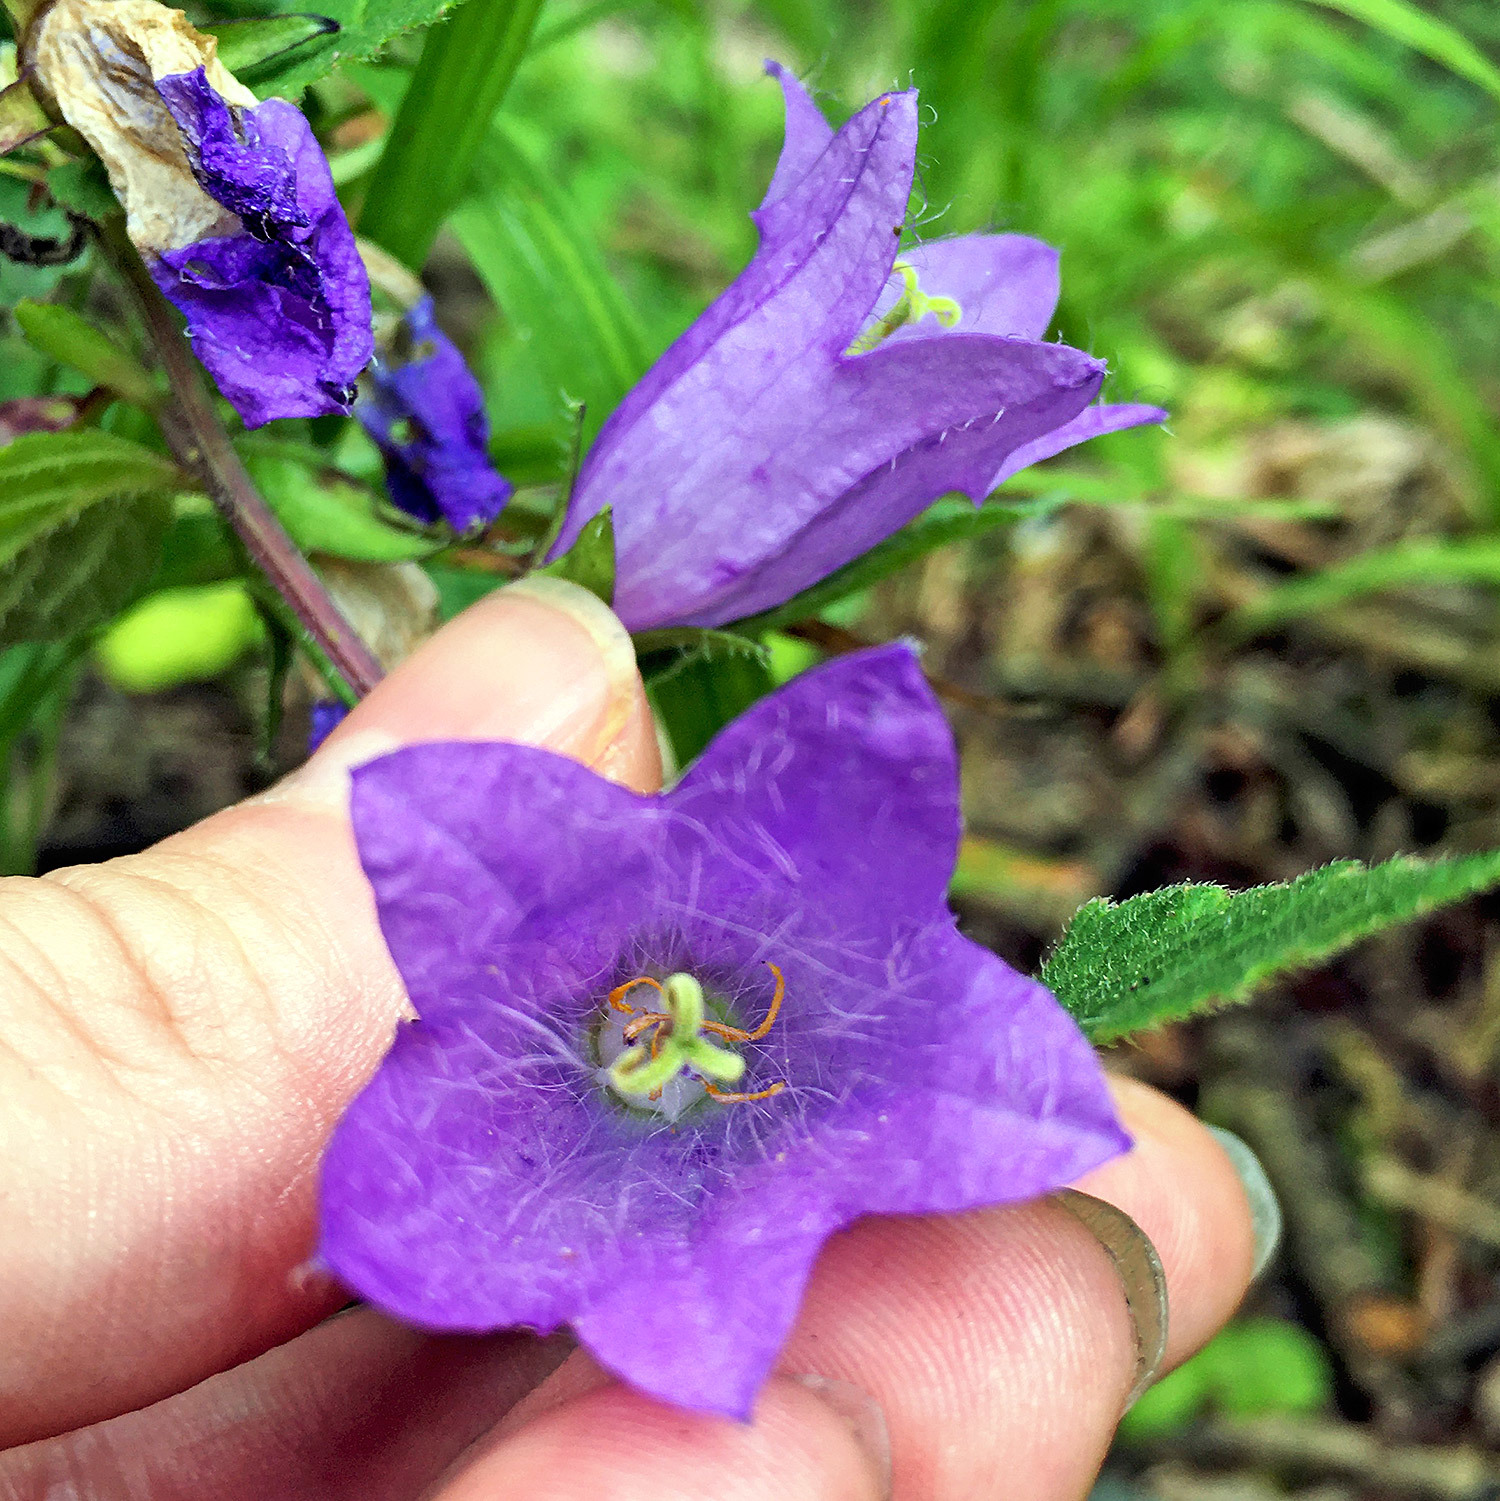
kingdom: Plantae
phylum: Tracheophyta
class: Magnoliopsida
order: Asterales
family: Campanulaceae
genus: Campanula
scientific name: Campanula trachelium
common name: Nettle-leaved bellflower
